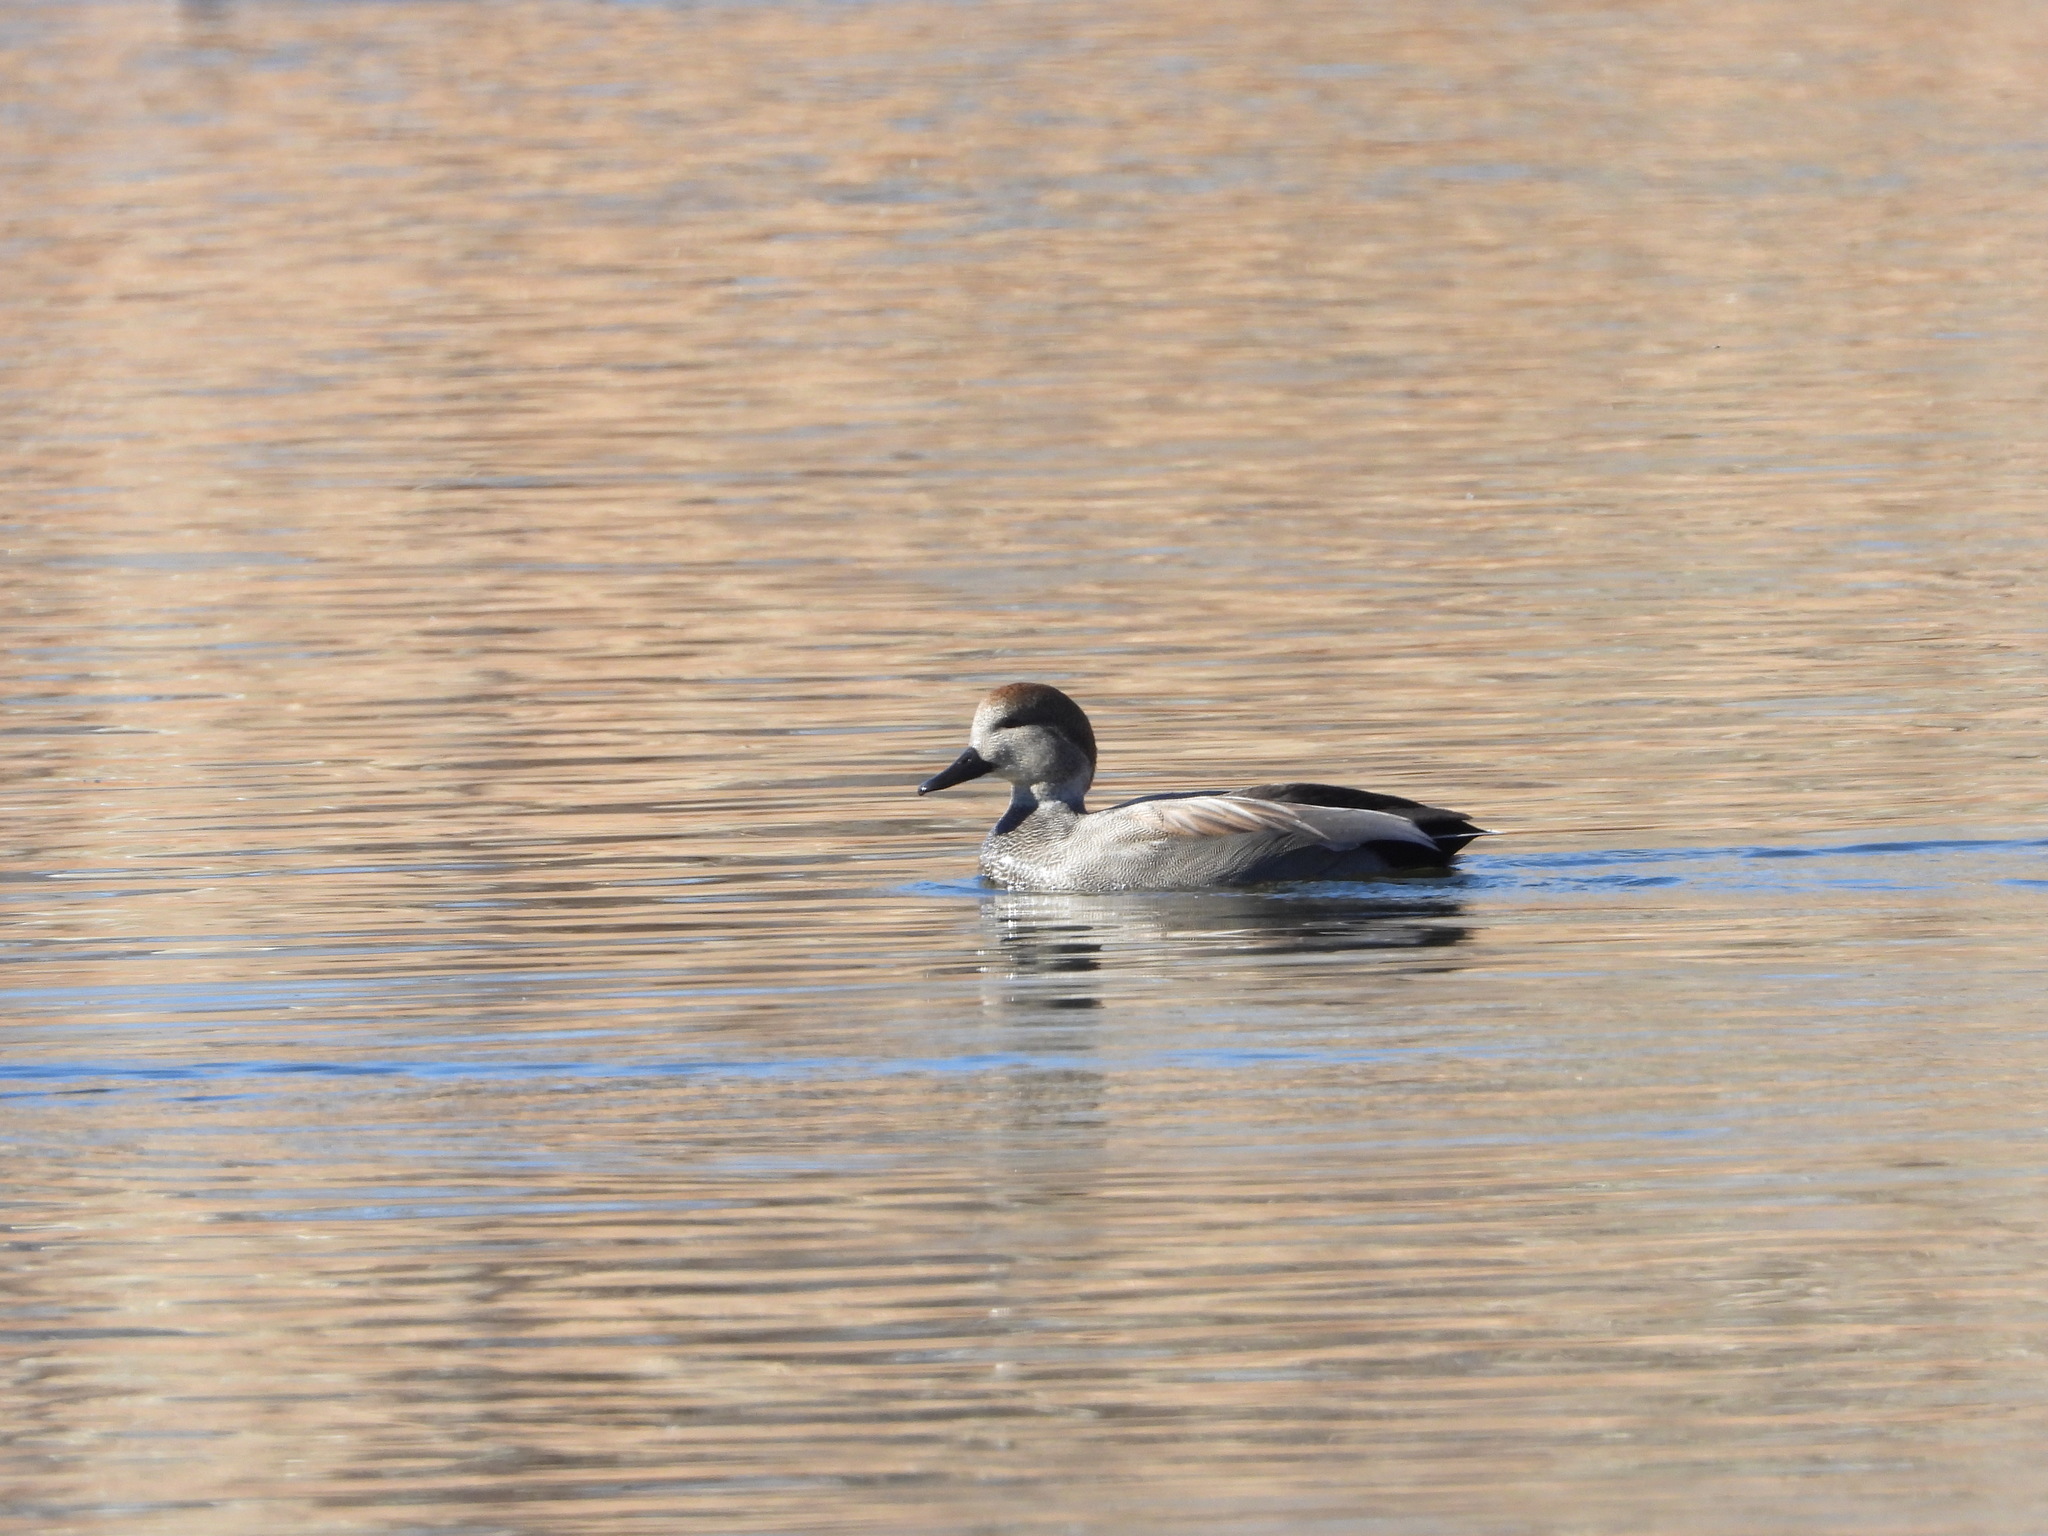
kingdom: Animalia
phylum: Chordata
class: Aves
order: Anseriformes
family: Anatidae
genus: Mareca
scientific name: Mareca strepera
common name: Gadwall
